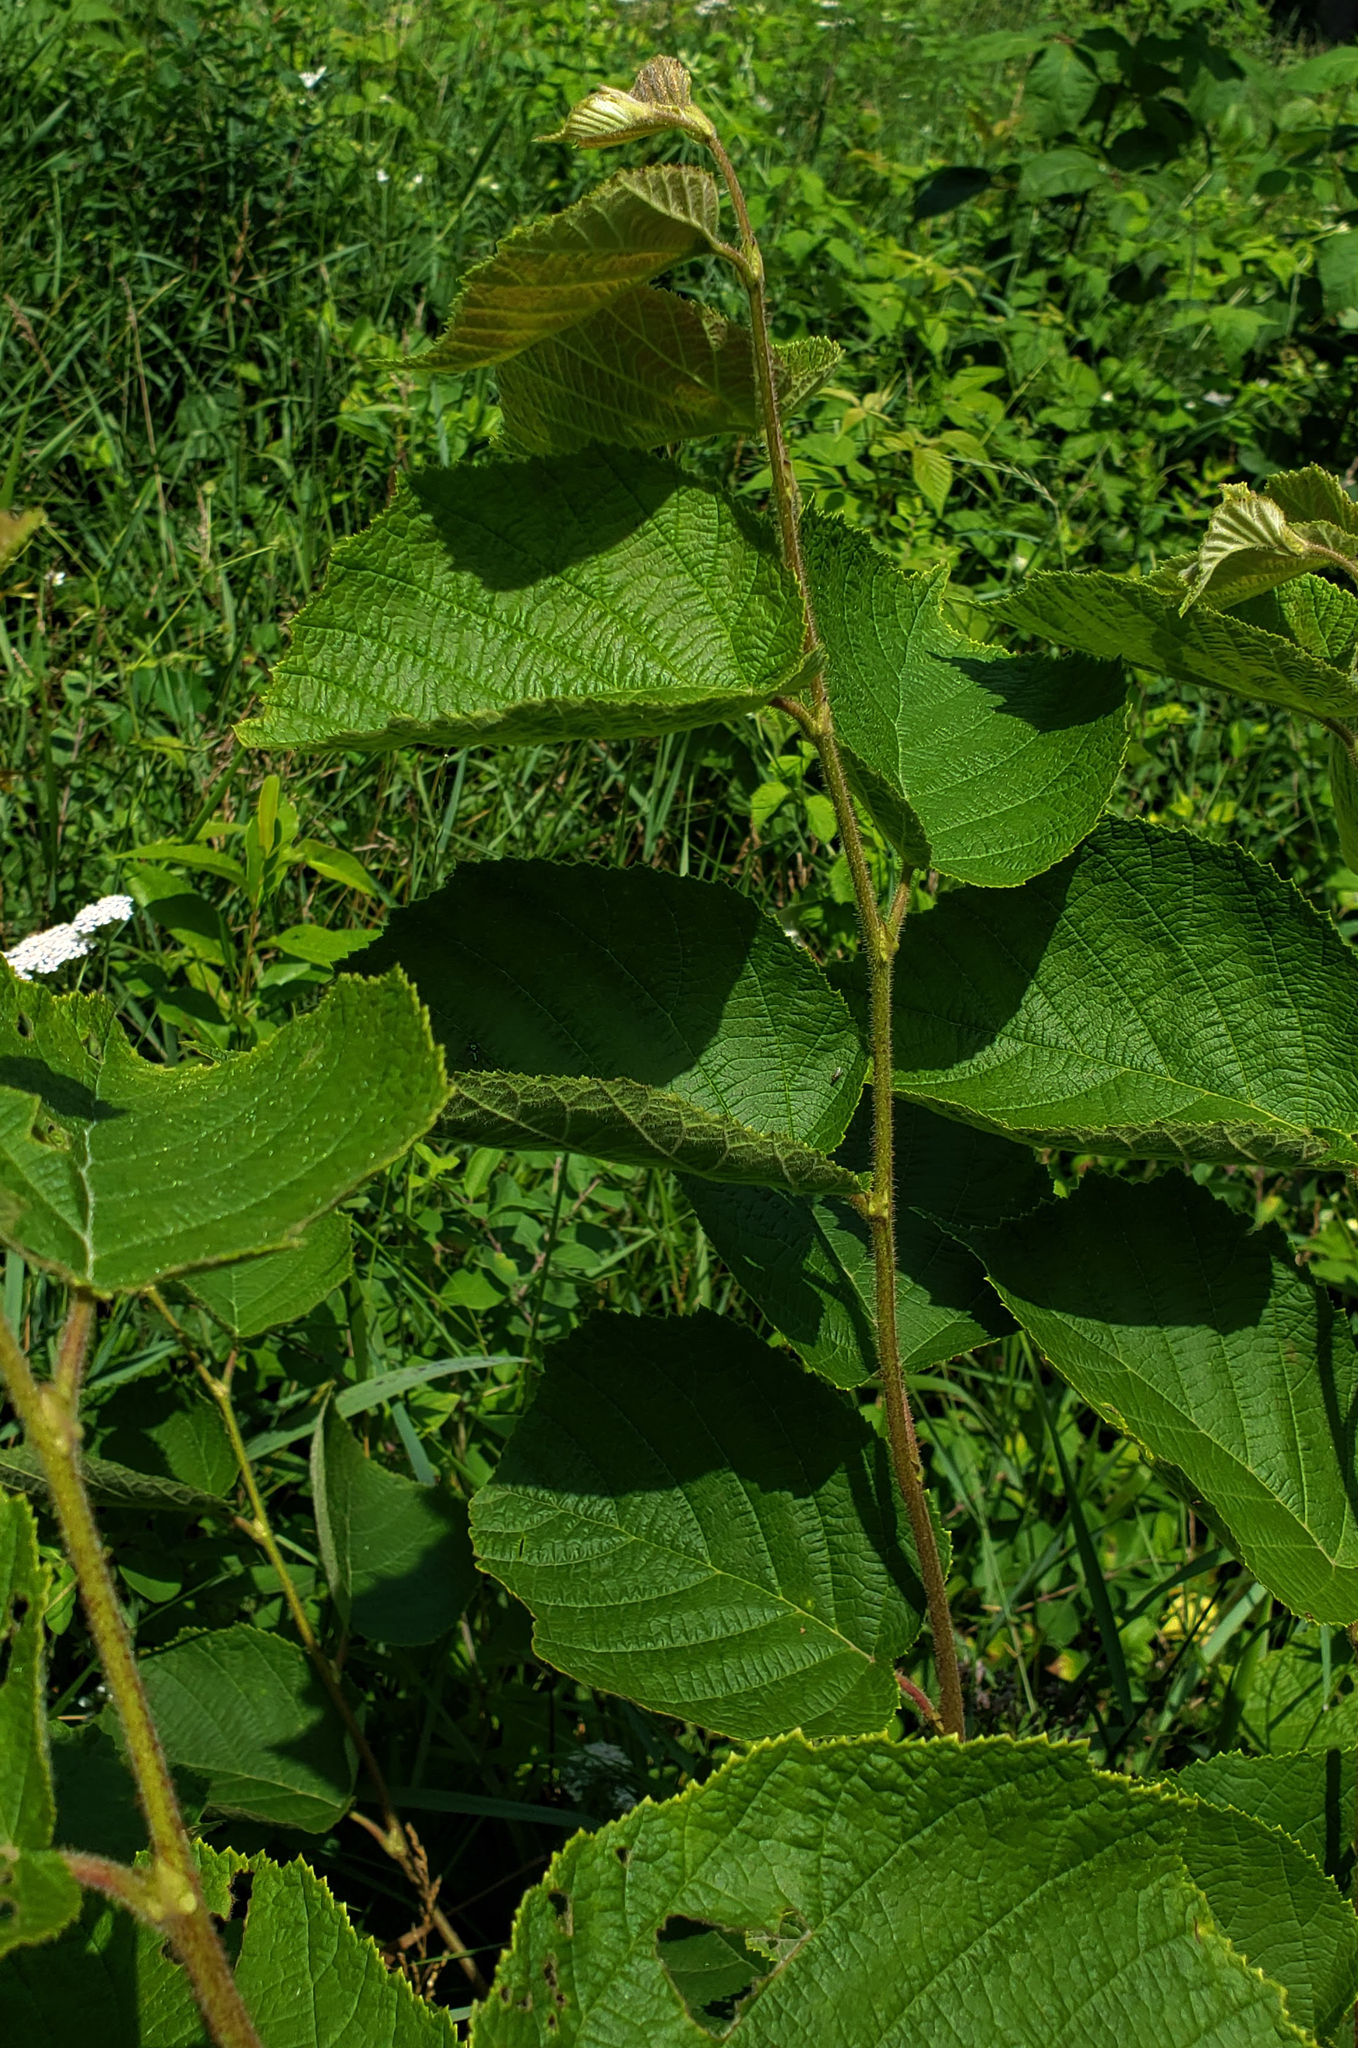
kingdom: Plantae
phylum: Tracheophyta
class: Magnoliopsida
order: Fagales
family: Betulaceae
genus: Corylus
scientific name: Corylus americana
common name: American hazel
